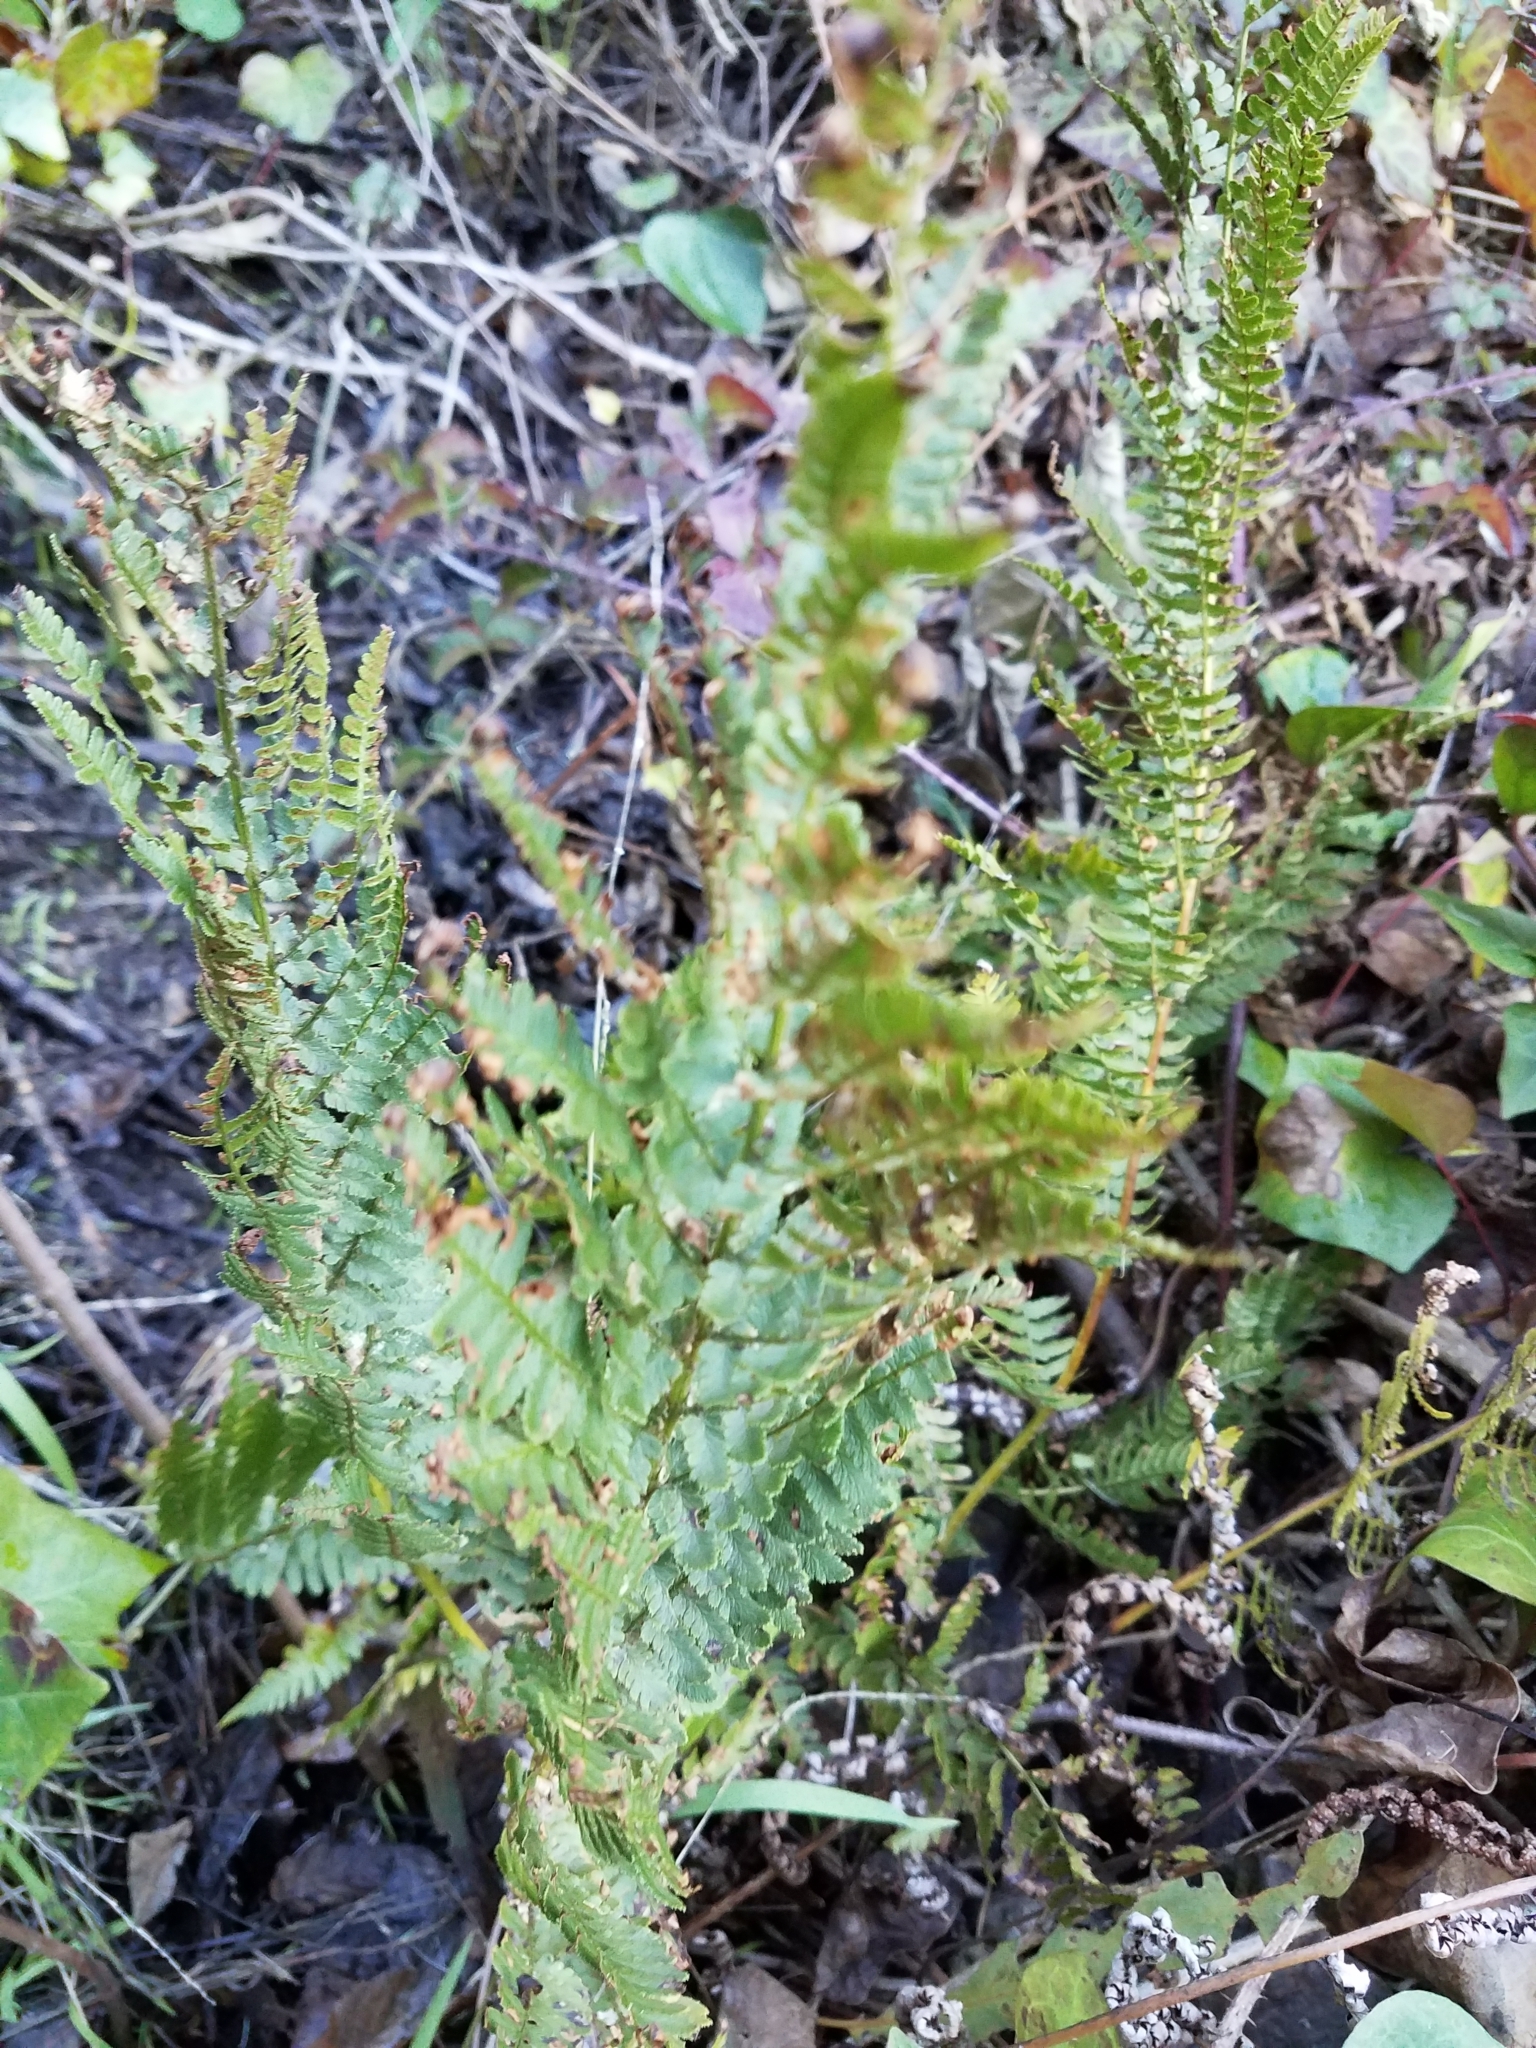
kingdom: Plantae
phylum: Tracheophyta
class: Polypodiopsida
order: Polypodiales
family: Dryopteridaceae
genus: Dryopteris
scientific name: Dryopteris arguta
